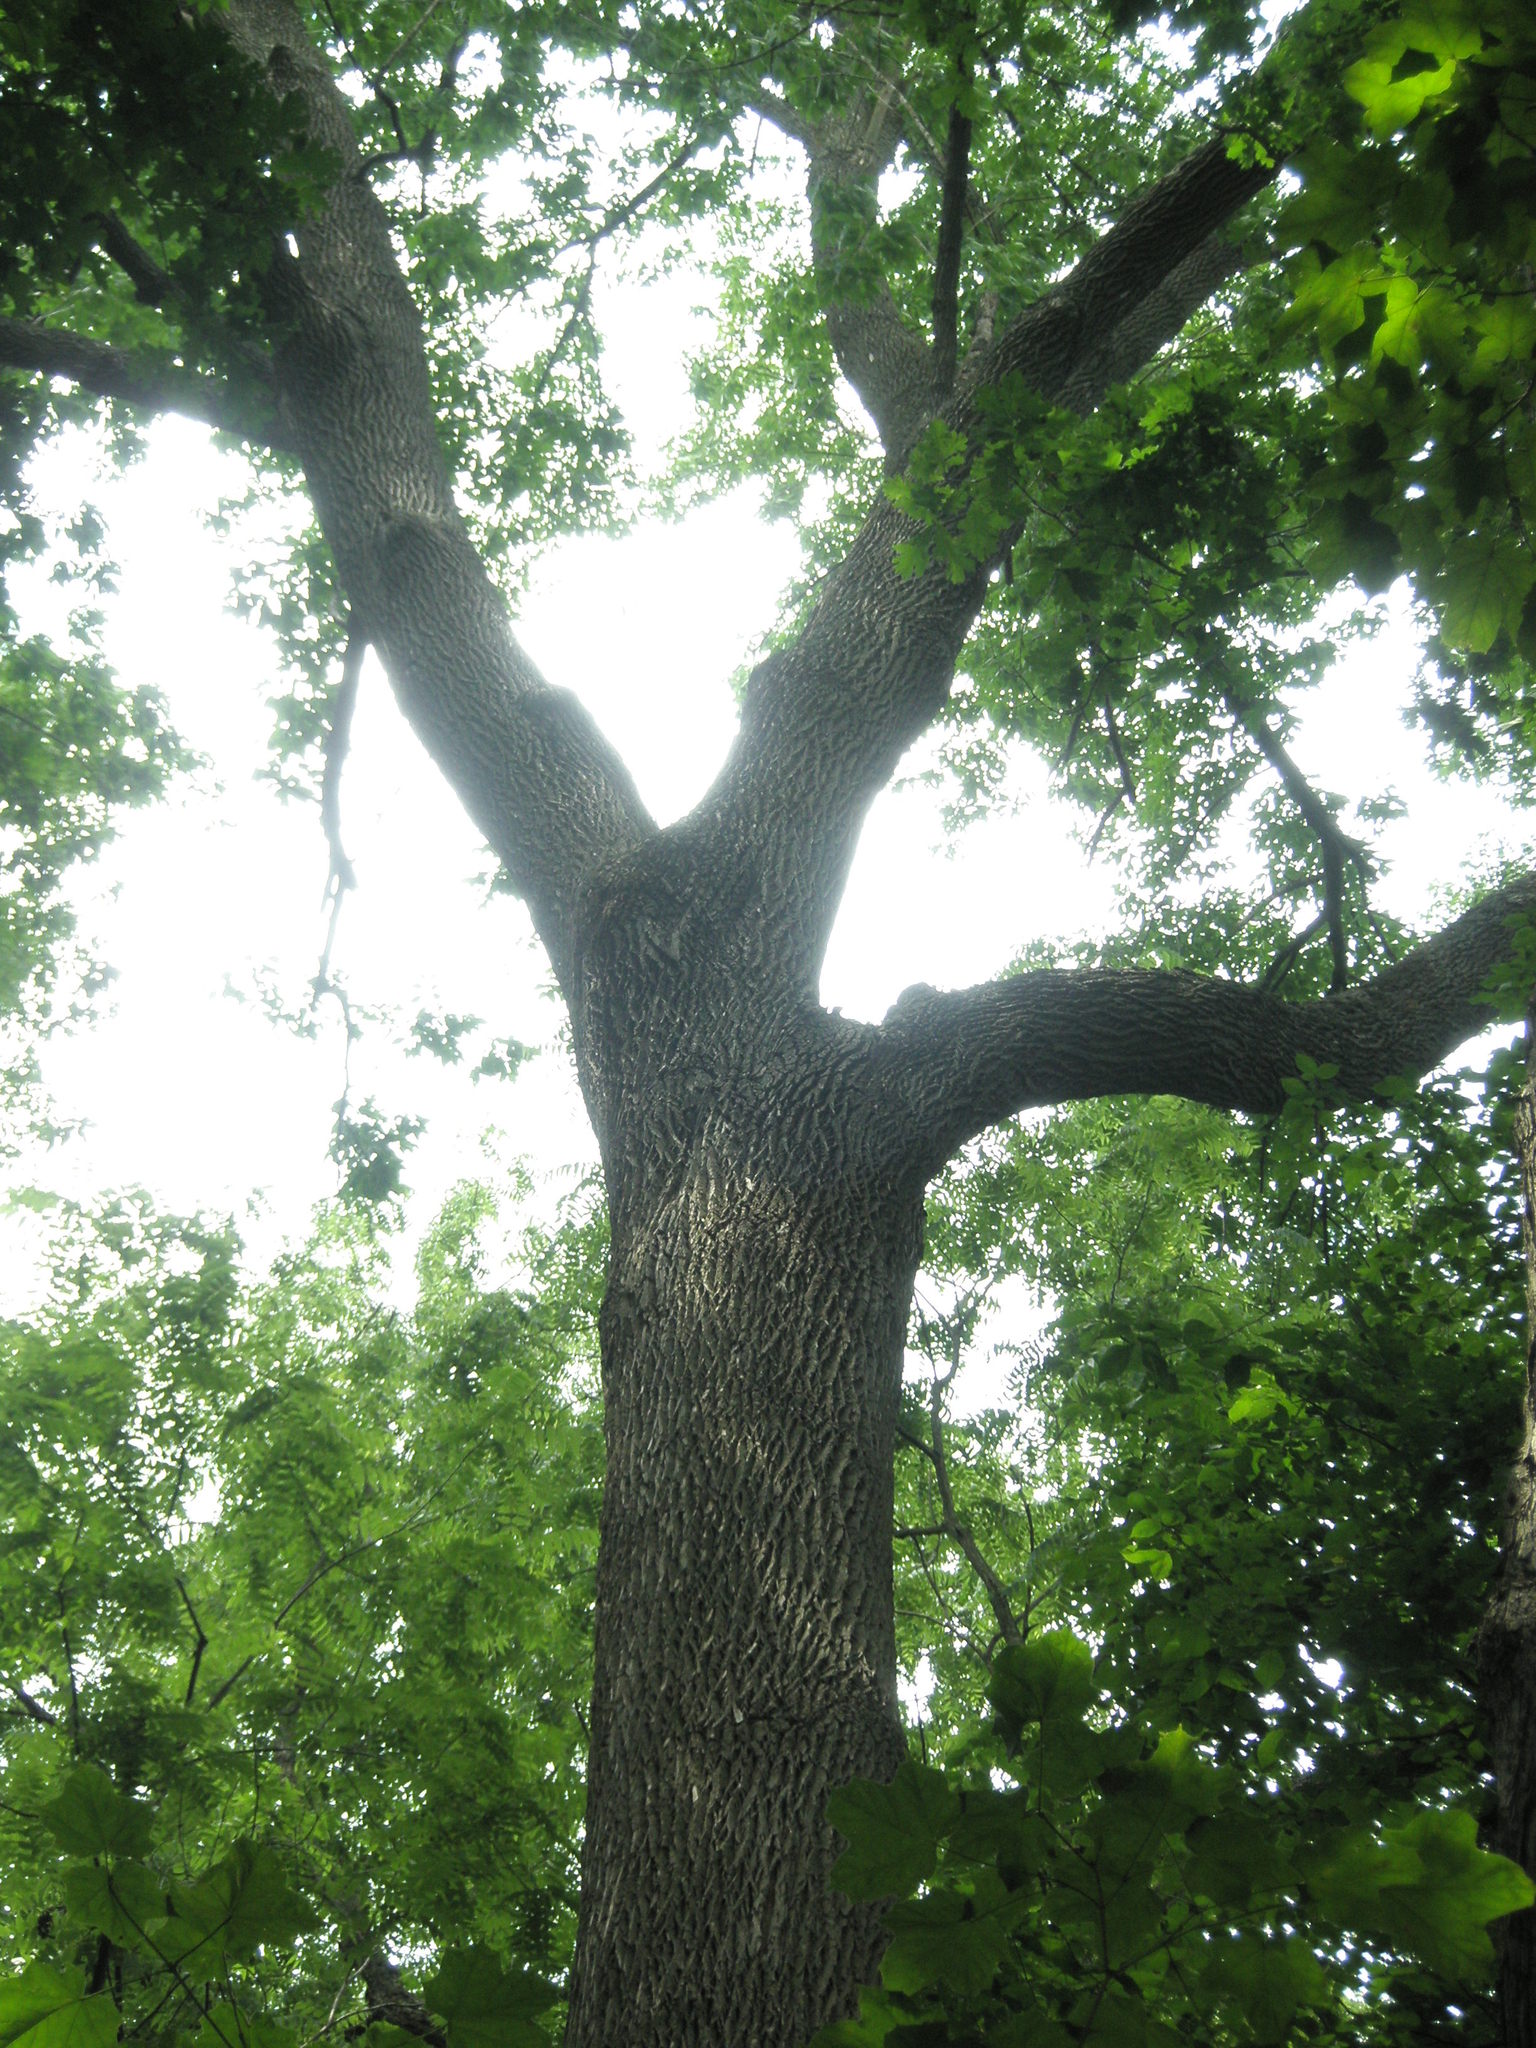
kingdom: Plantae
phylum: Tracheophyta
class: Magnoliopsida
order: Lamiales
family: Oleaceae
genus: Fraxinus
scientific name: Fraxinus americana
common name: White ash
